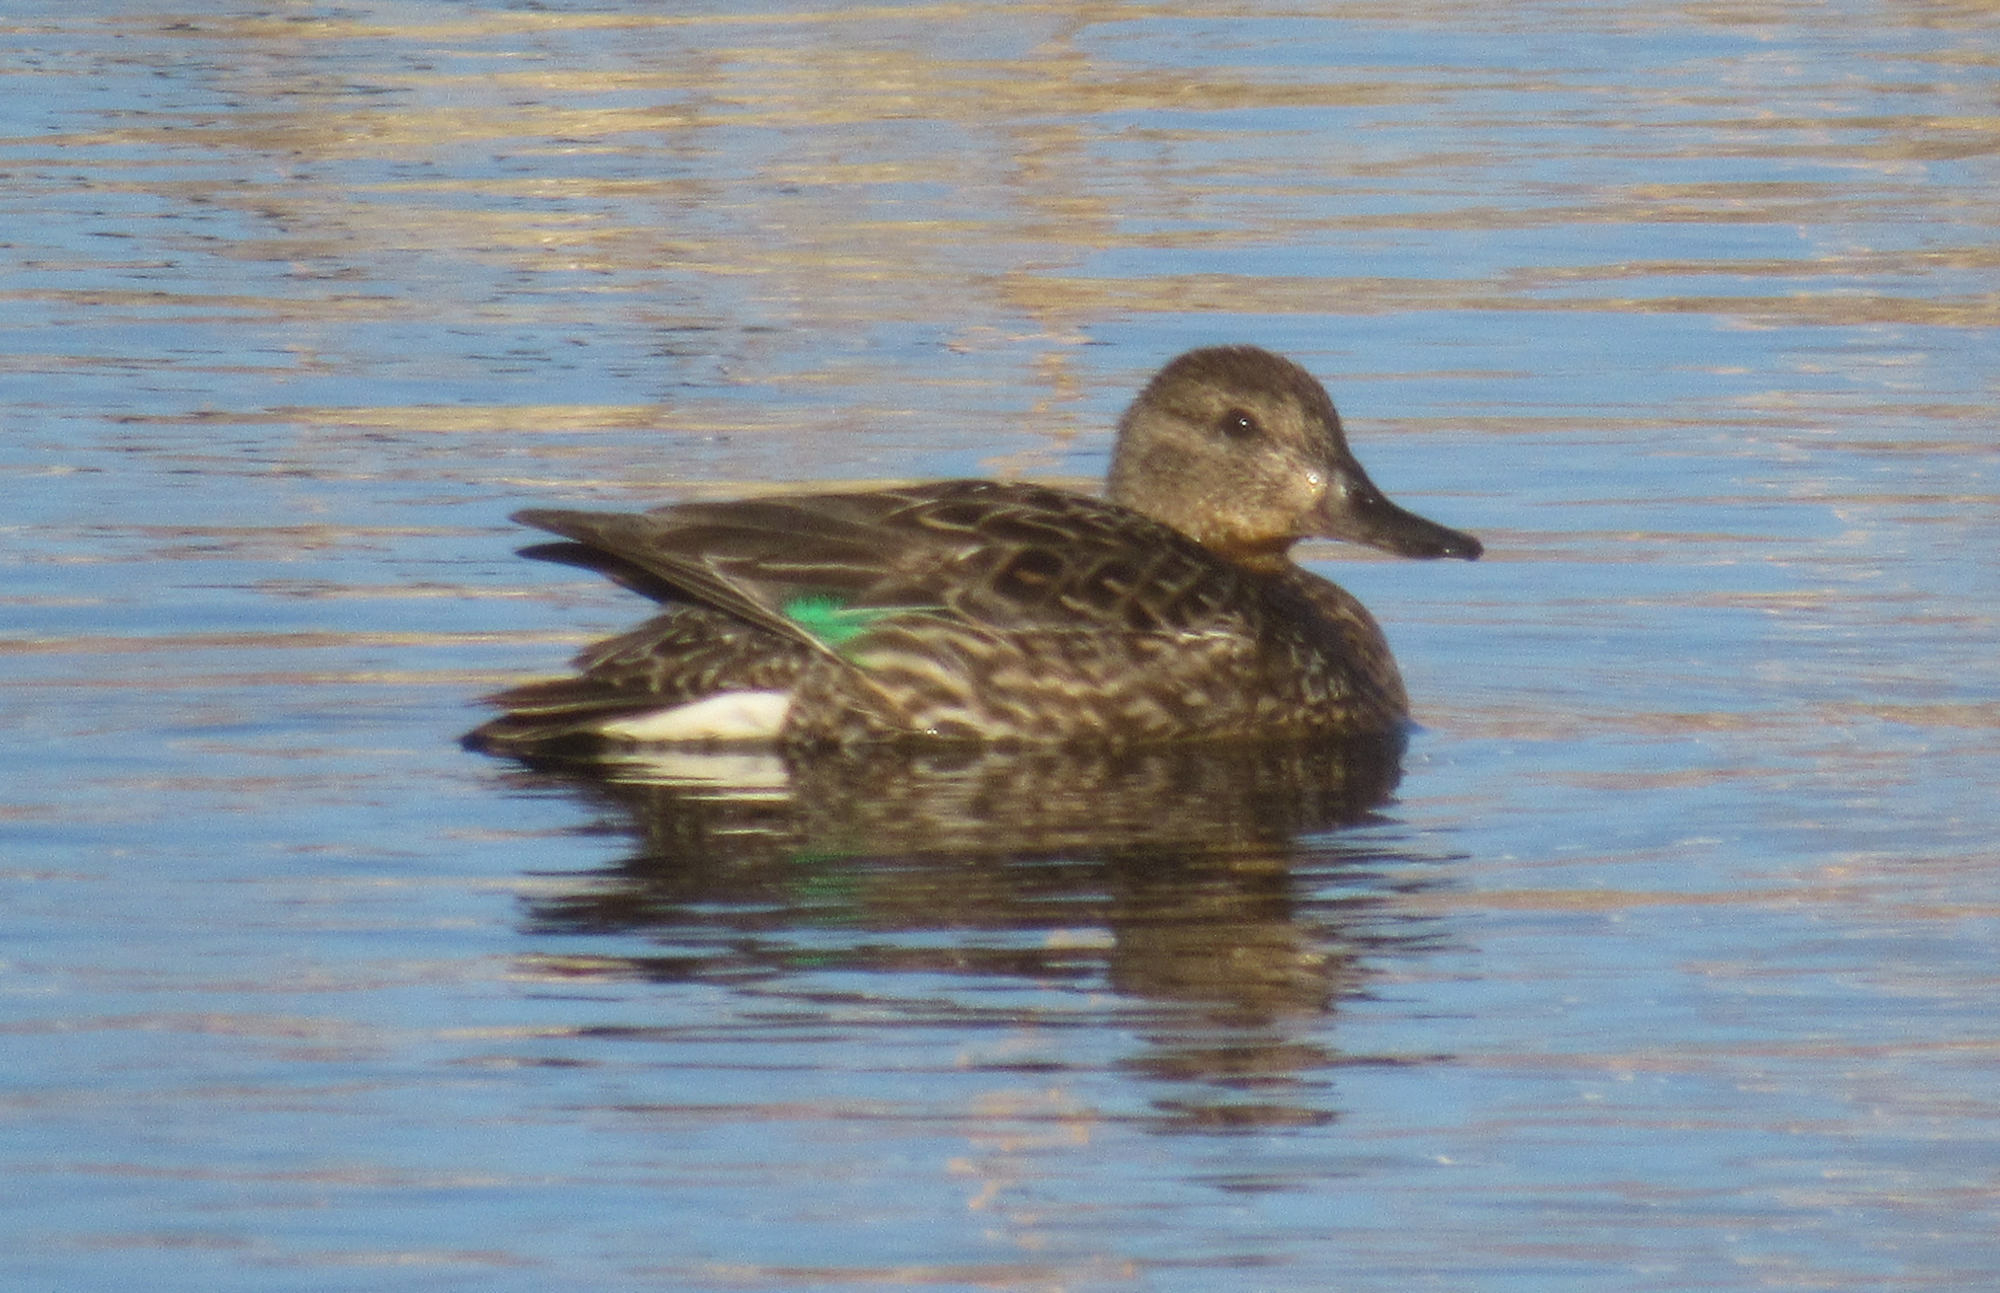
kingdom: Animalia
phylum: Chordata
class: Aves
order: Anseriformes
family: Anatidae
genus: Anas
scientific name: Anas crecca
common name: Eurasian teal
